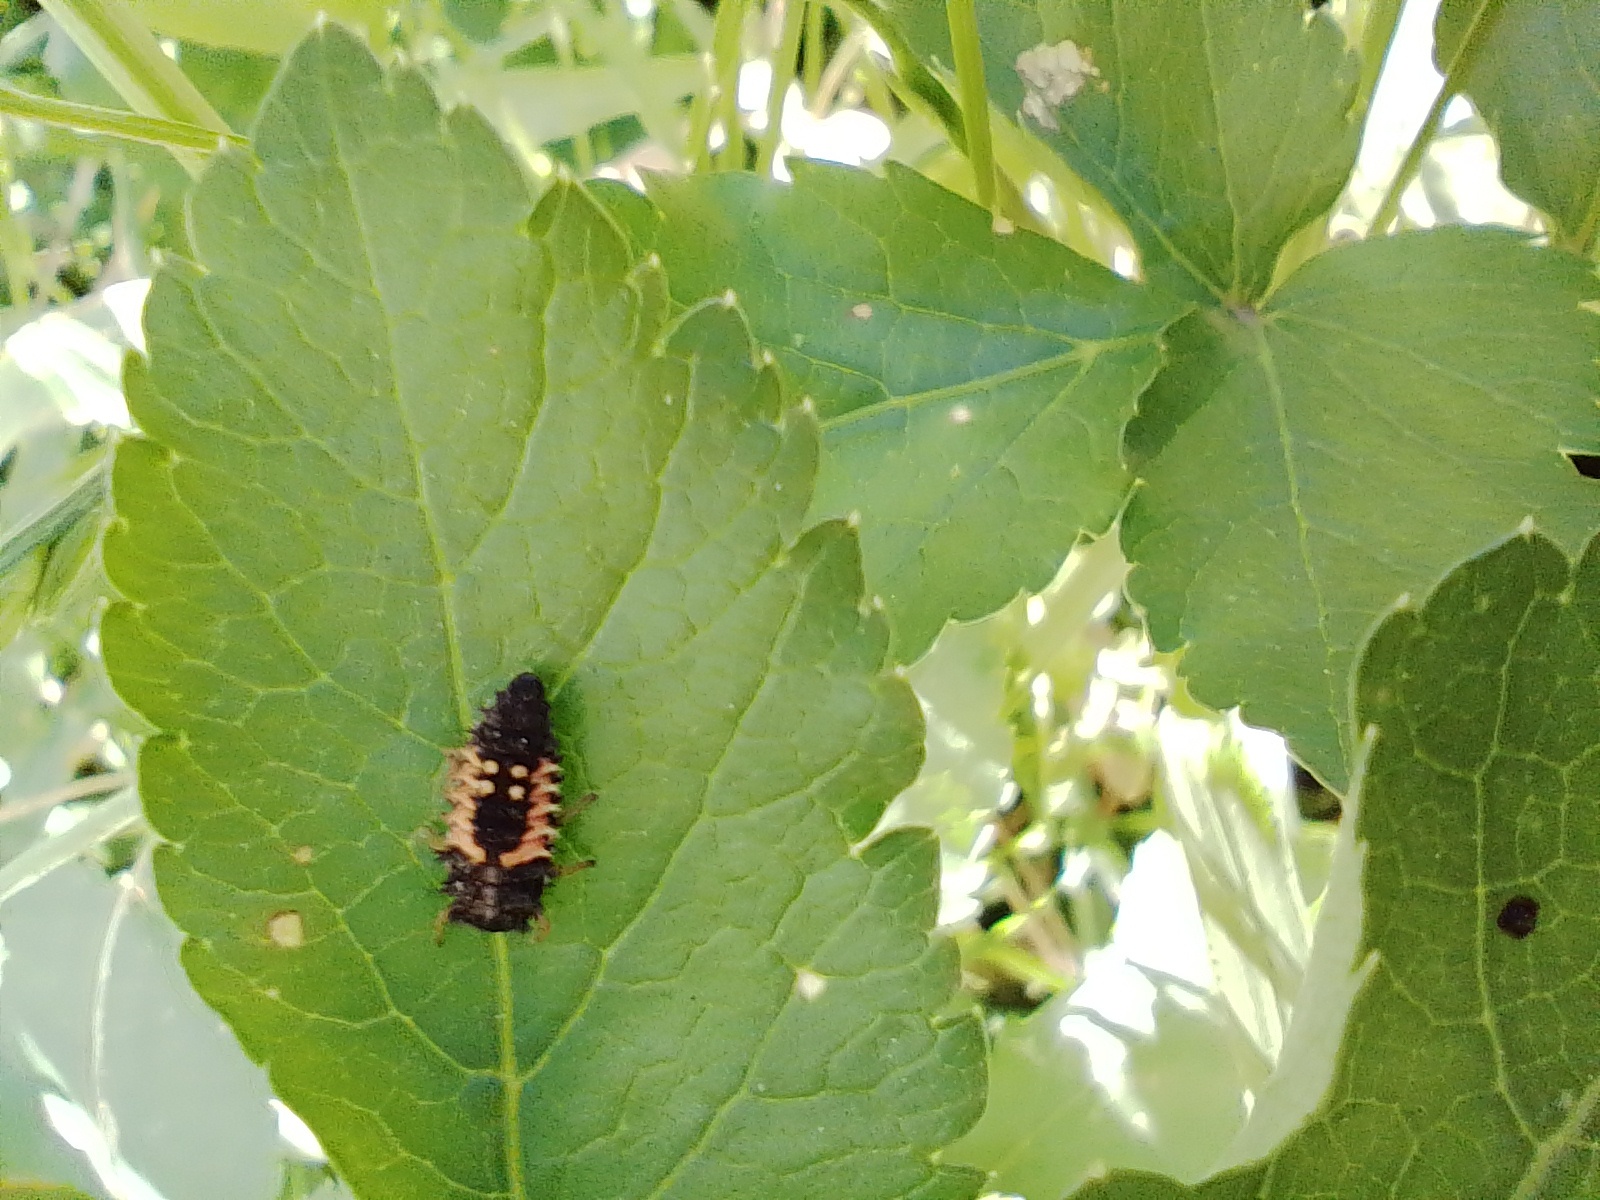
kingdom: Animalia
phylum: Arthropoda
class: Insecta
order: Coleoptera
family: Coccinellidae
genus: Harmonia
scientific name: Harmonia axyridis
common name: Harlequin ladybird
